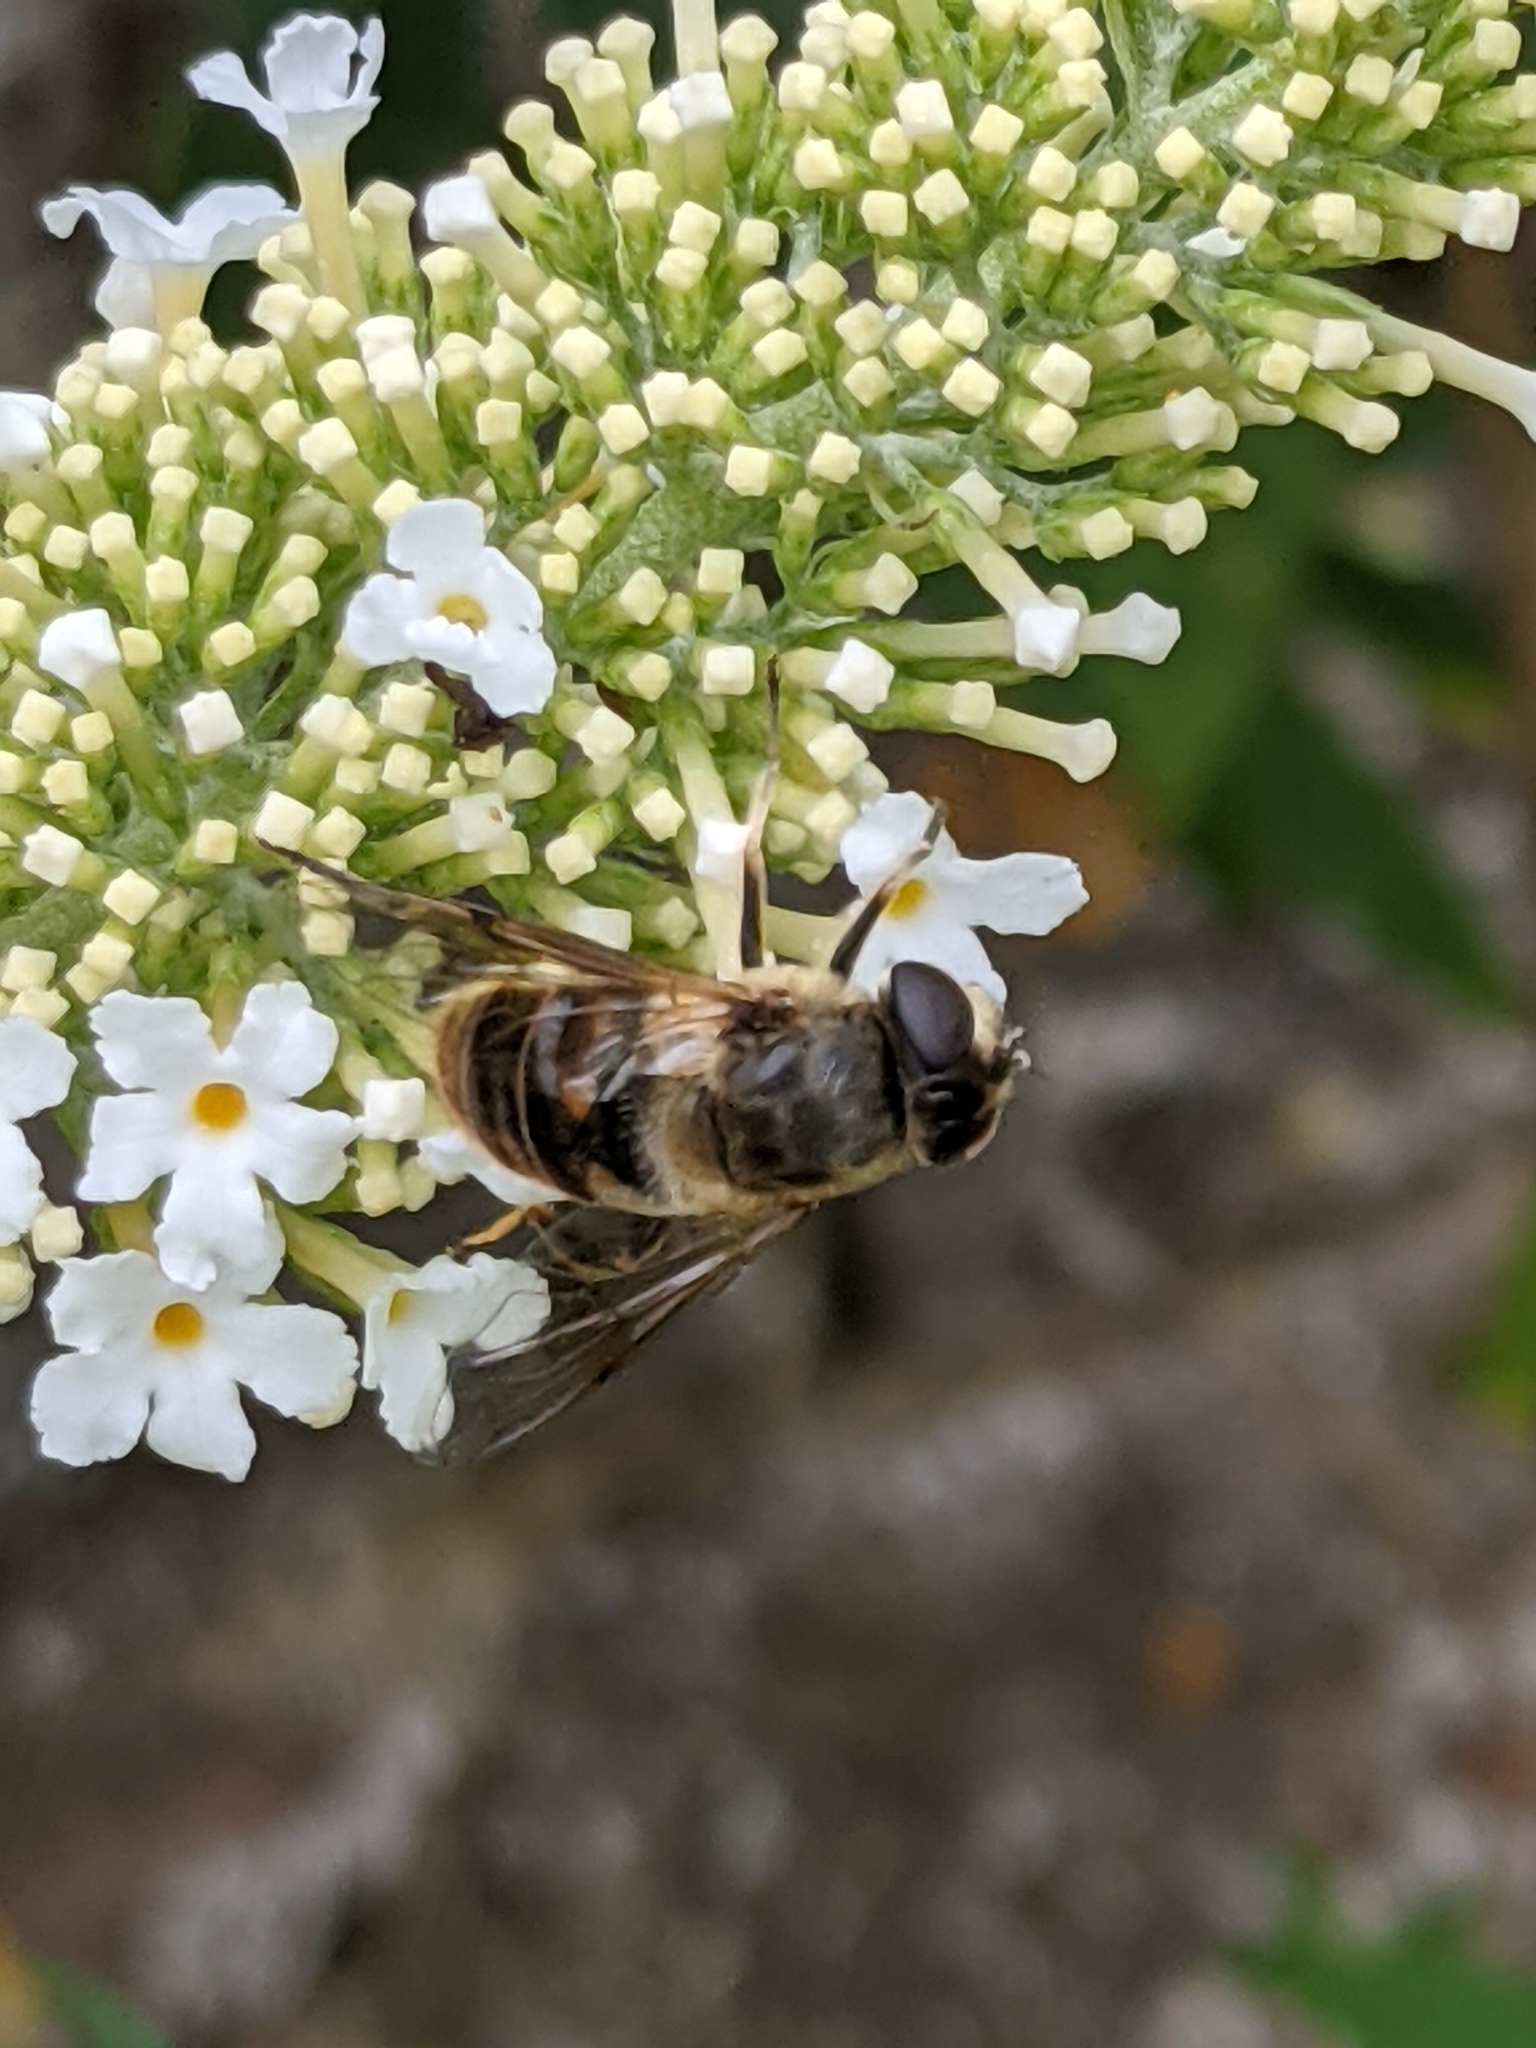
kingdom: Animalia
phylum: Arthropoda
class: Insecta
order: Diptera
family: Syrphidae
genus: Eristalis
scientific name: Eristalis tenax
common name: Drone fly
